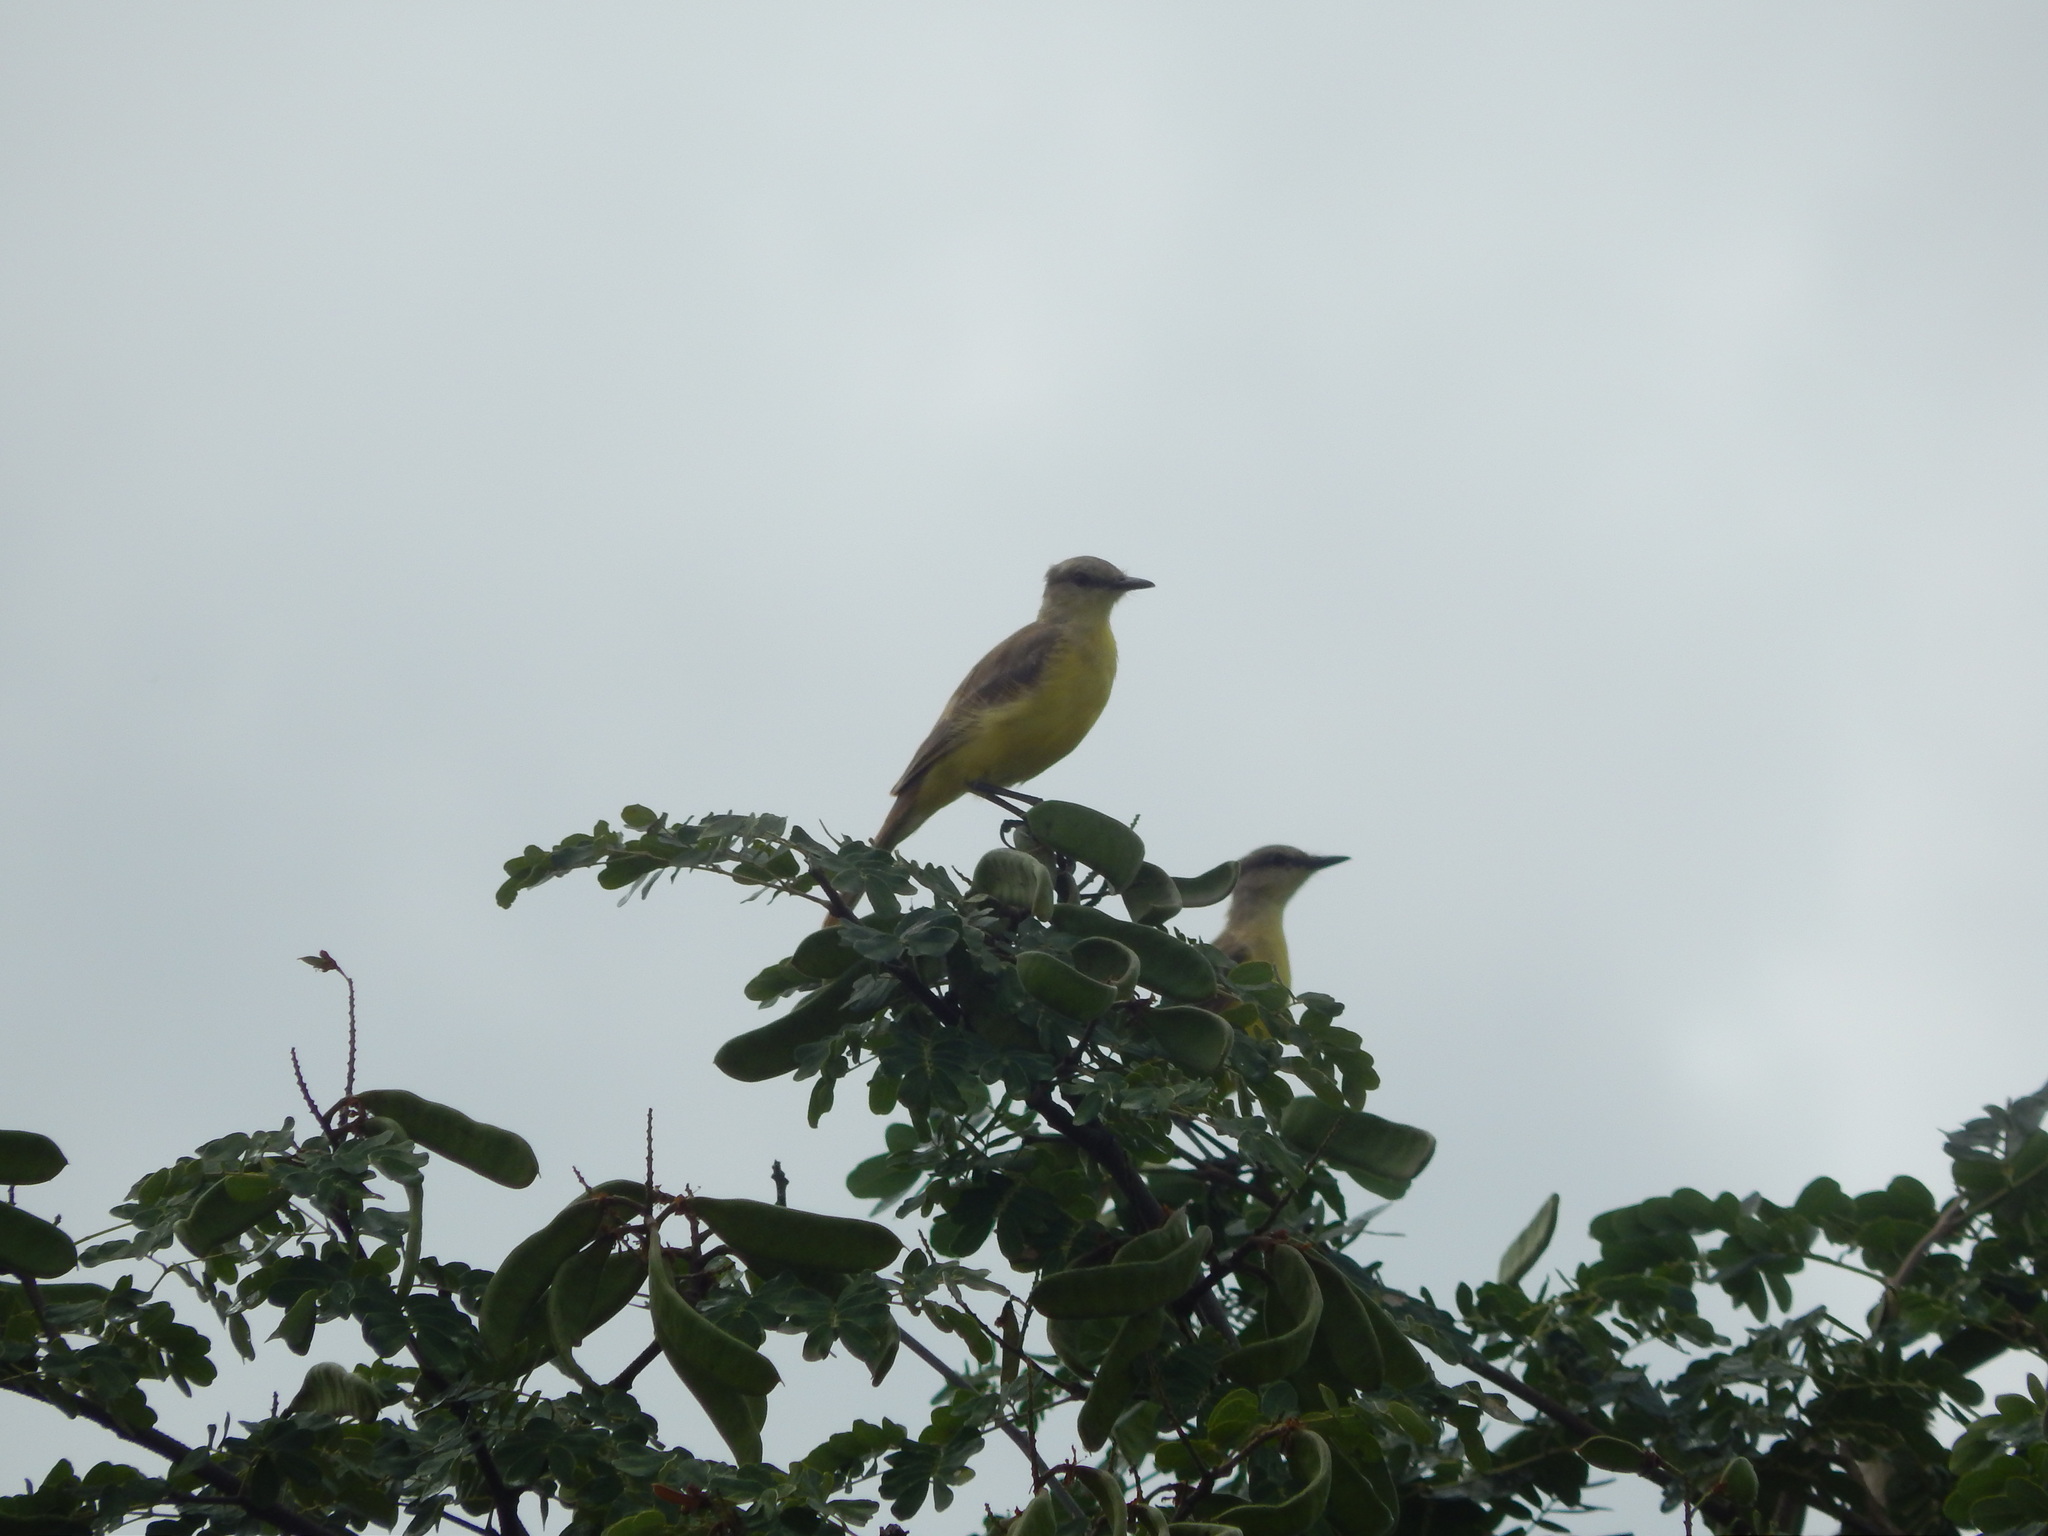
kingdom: Animalia
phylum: Chordata
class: Aves
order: Passeriformes
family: Tyrannidae
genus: Machetornis
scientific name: Machetornis rixosa
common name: Cattle tyrant
